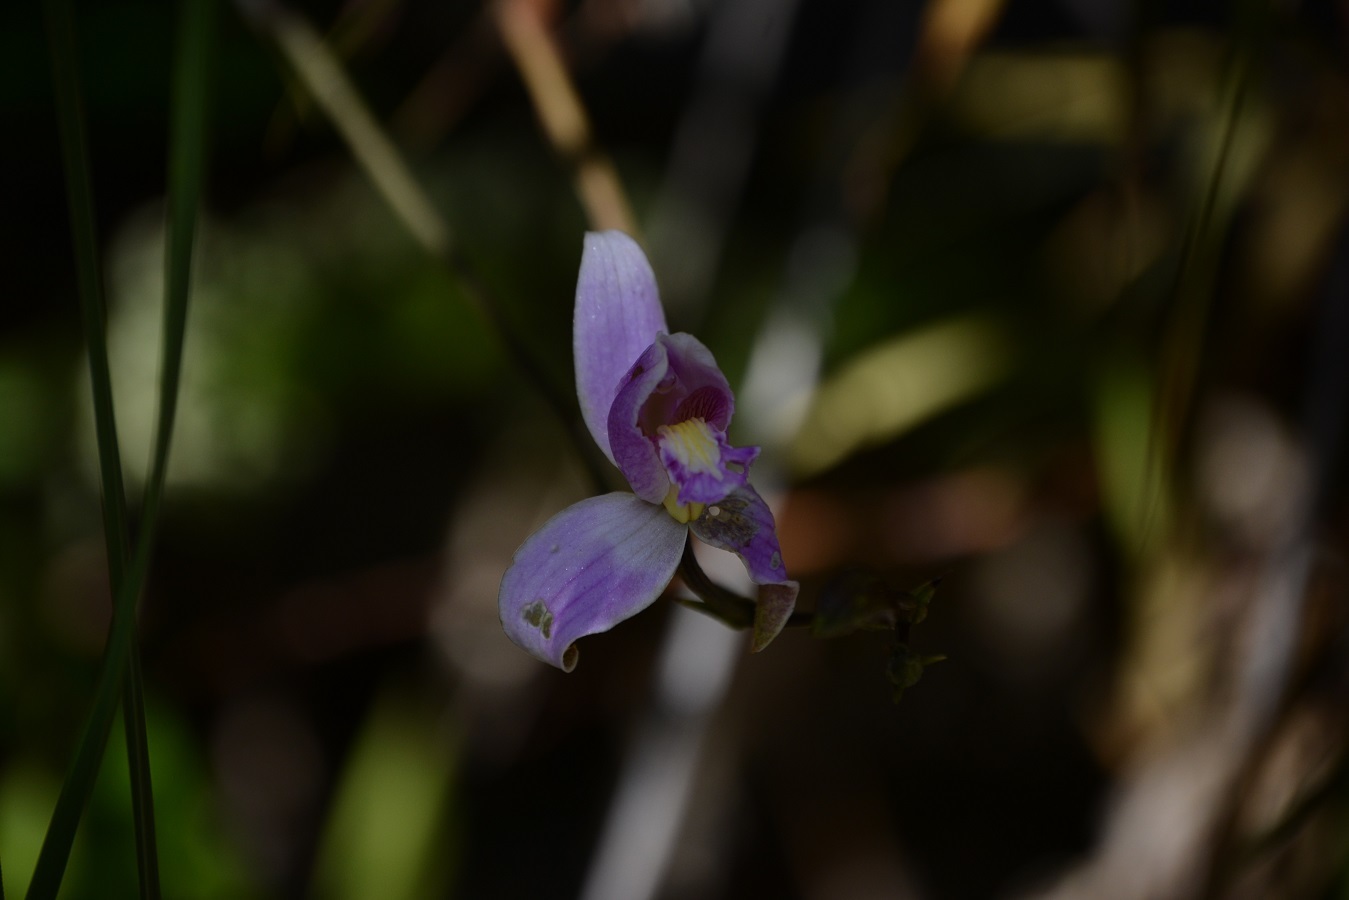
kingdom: Plantae
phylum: Tracheophyta
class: Liliopsida
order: Asparagales
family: Orchidaceae
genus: Bletia
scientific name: Bletia purpurea
